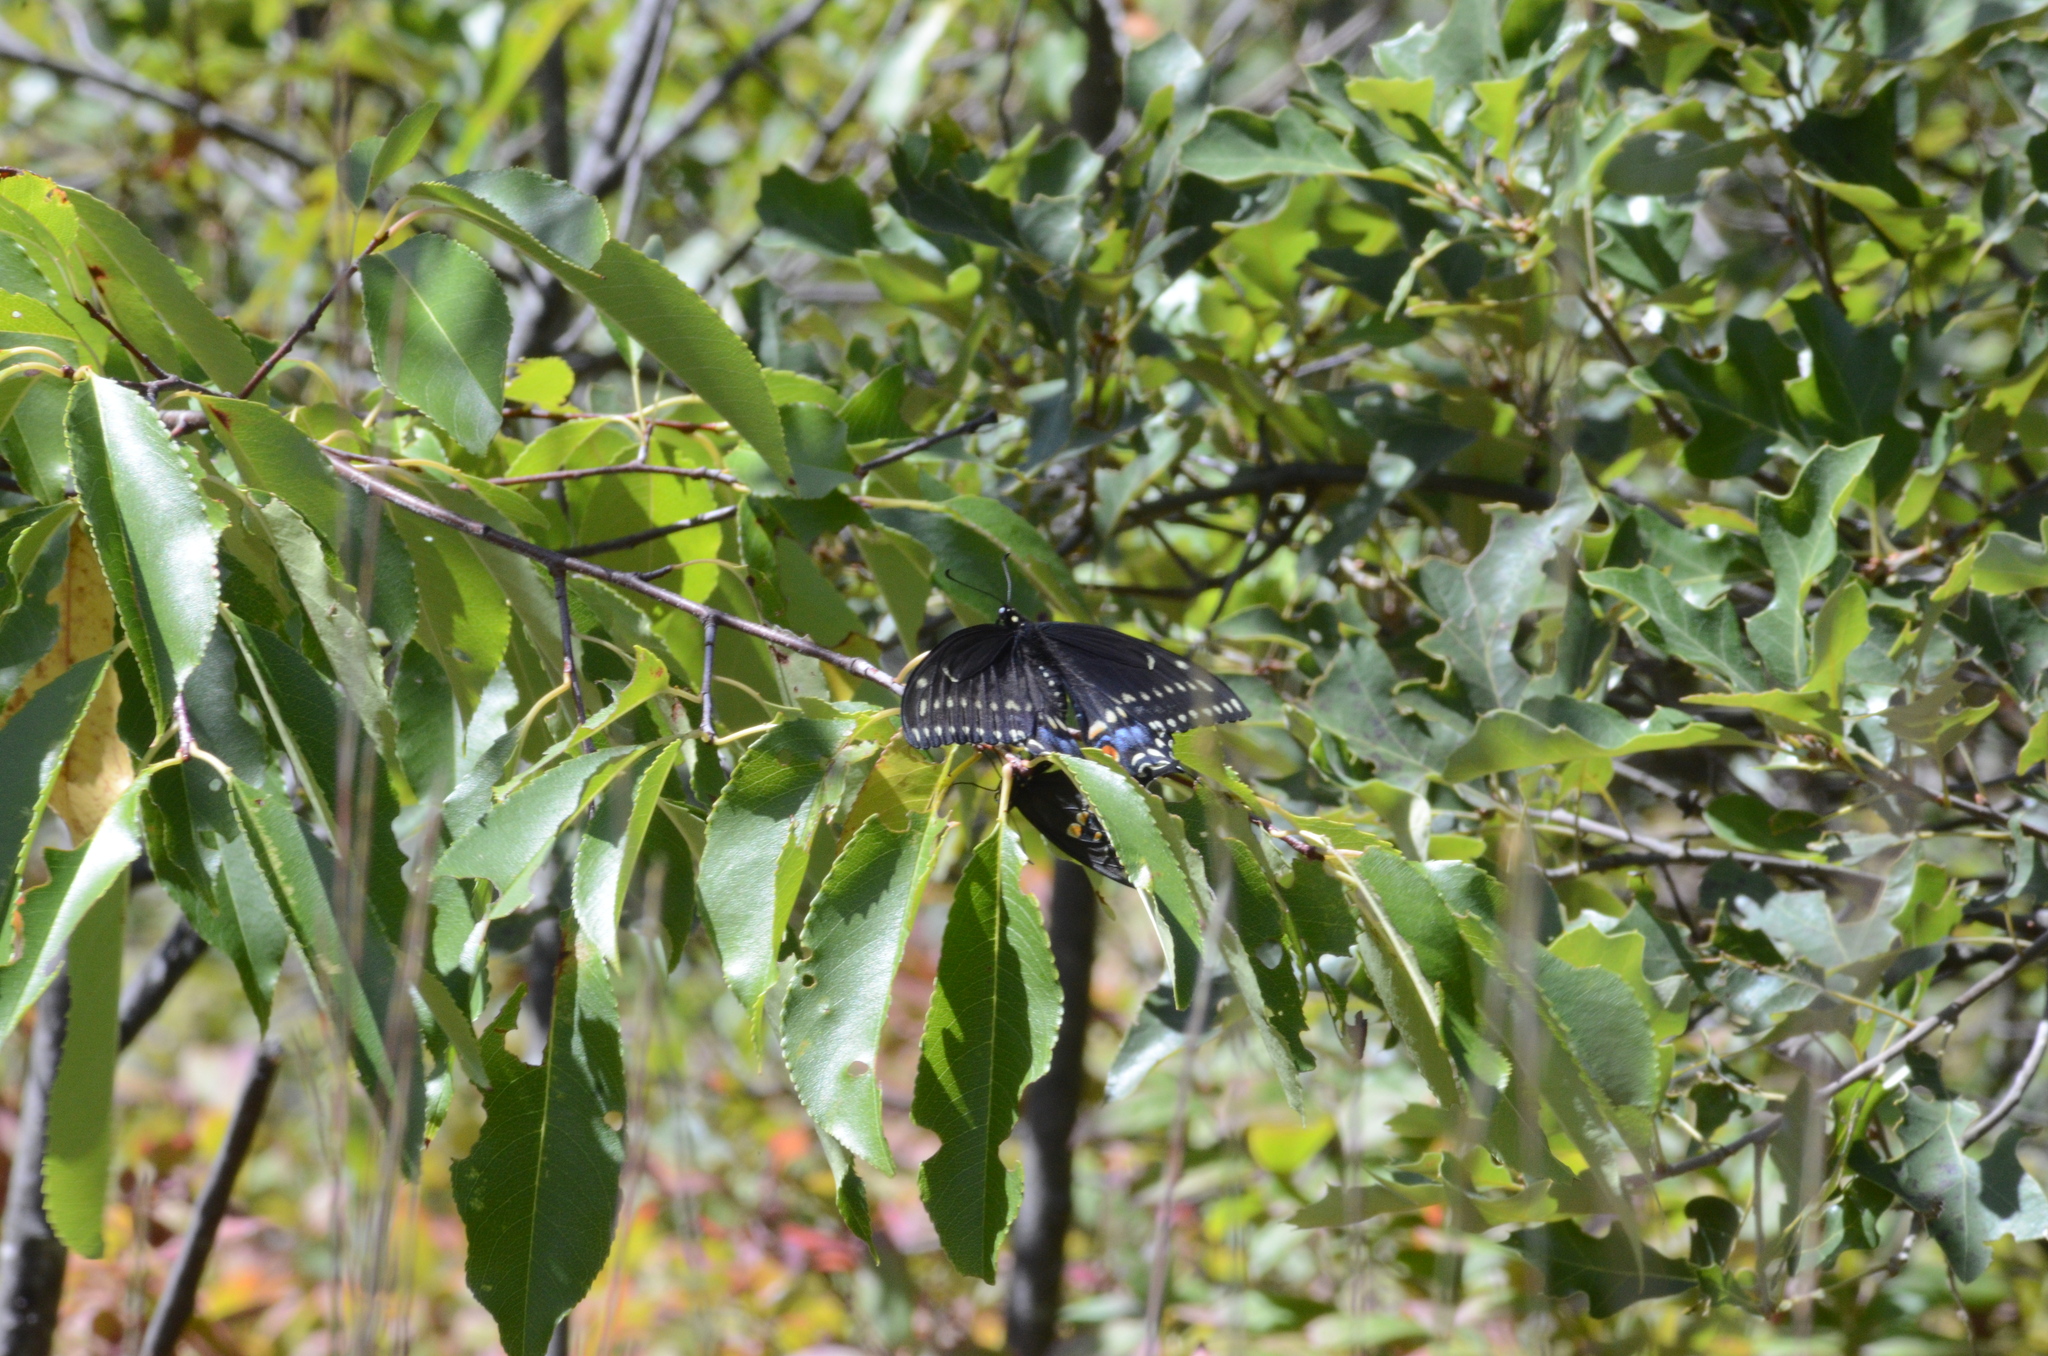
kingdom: Animalia
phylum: Arthropoda
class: Insecta
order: Lepidoptera
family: Papilionidae
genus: Papilio
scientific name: Papilio polyxenes
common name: Black swallowtail
